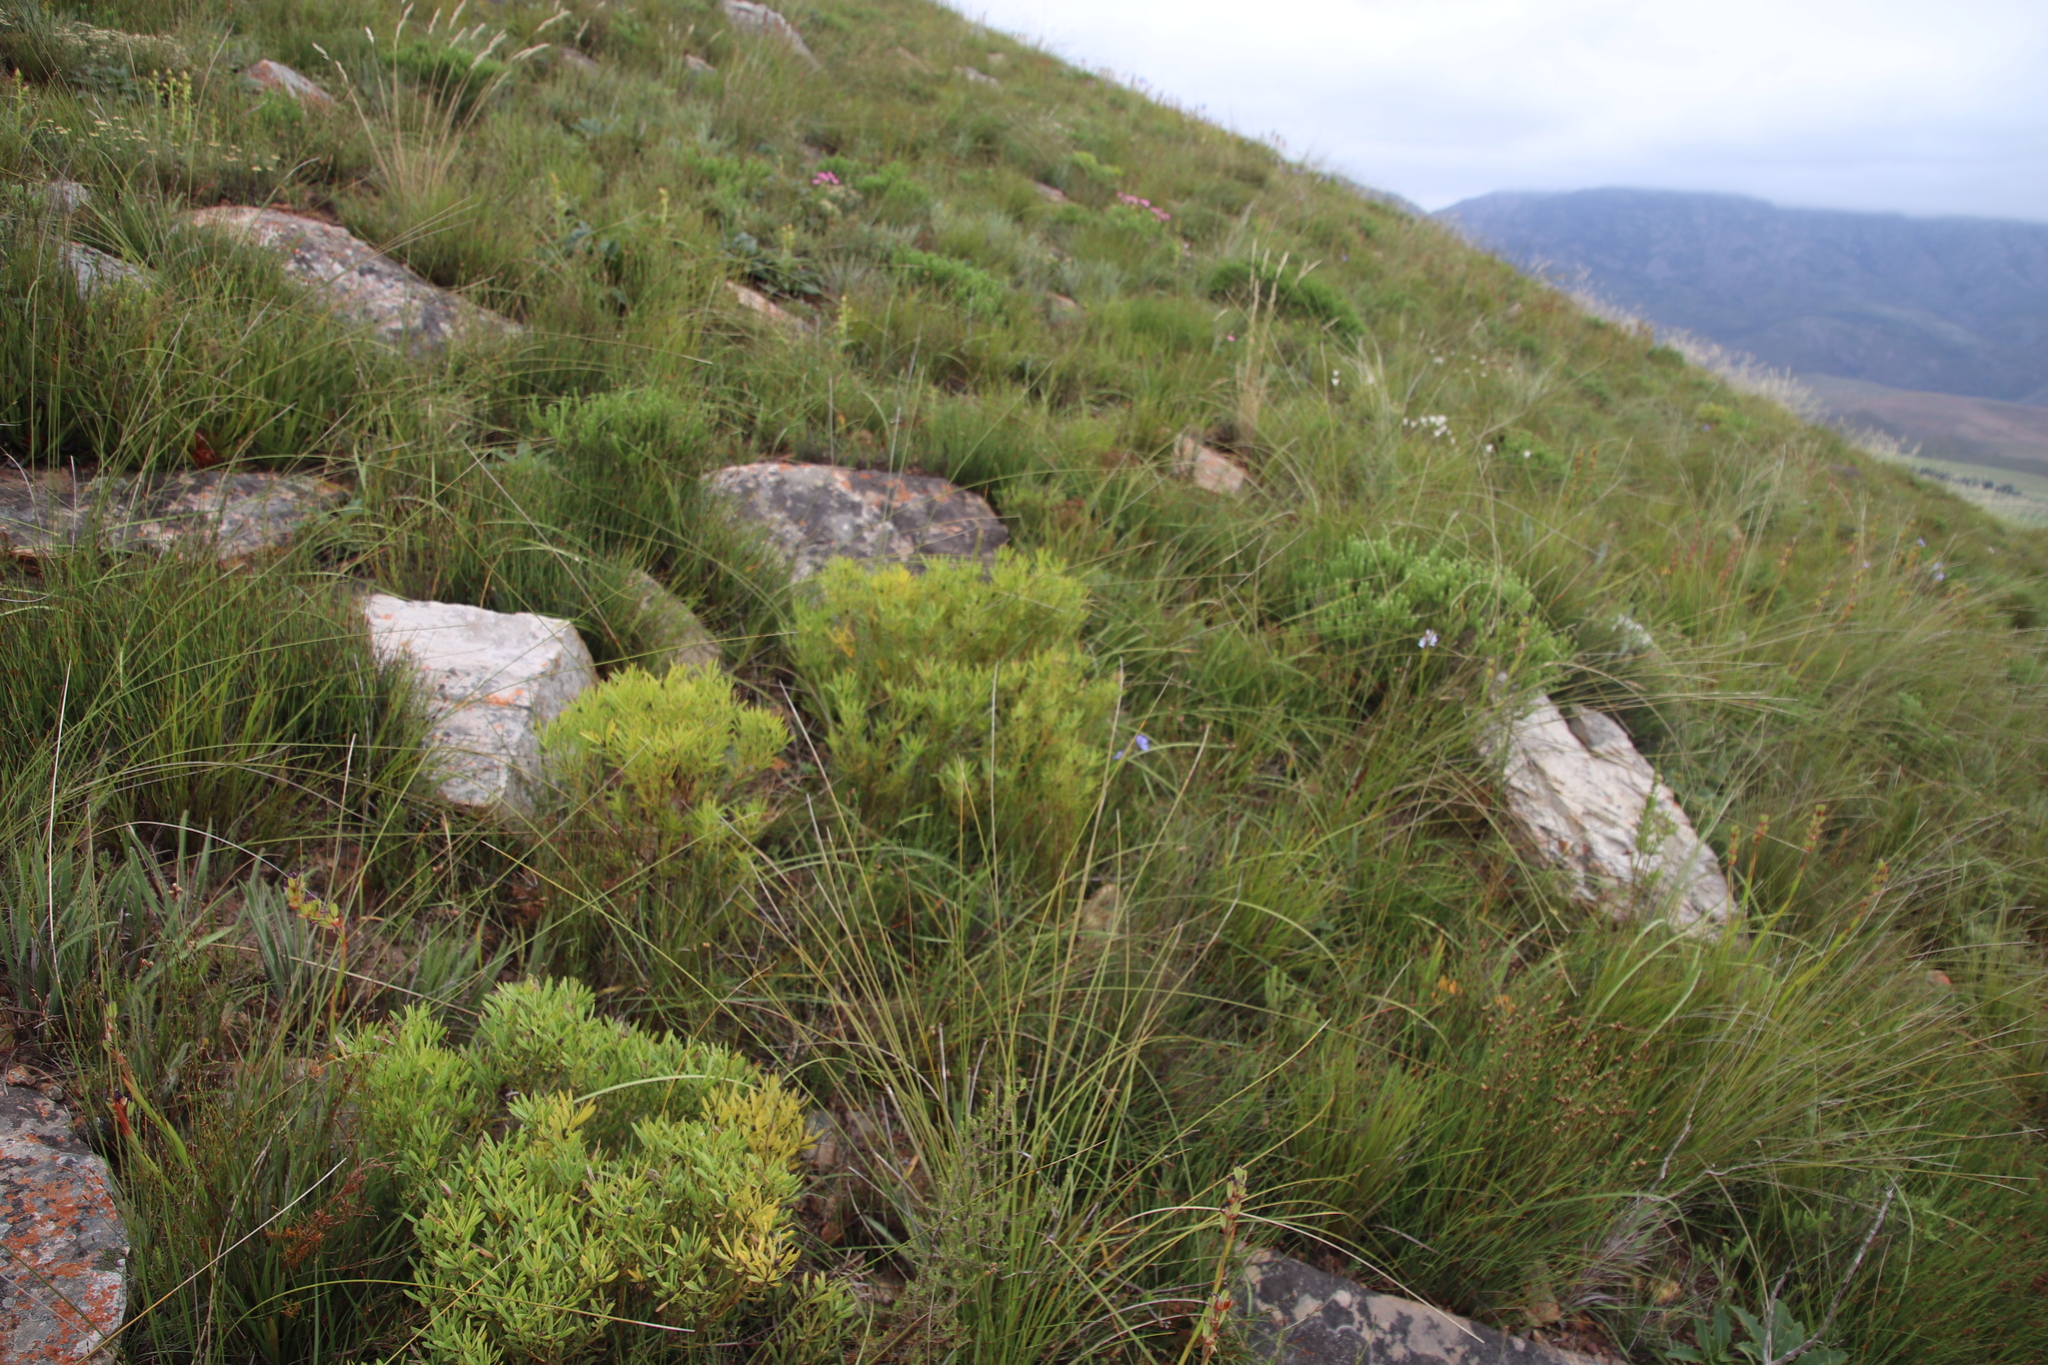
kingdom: Plantae
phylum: Tracheophyta
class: Magnoliopsida
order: Proteales
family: Proteaceae
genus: Leucadendron
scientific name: Leucadendron salignum
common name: Common sunshine conebush
